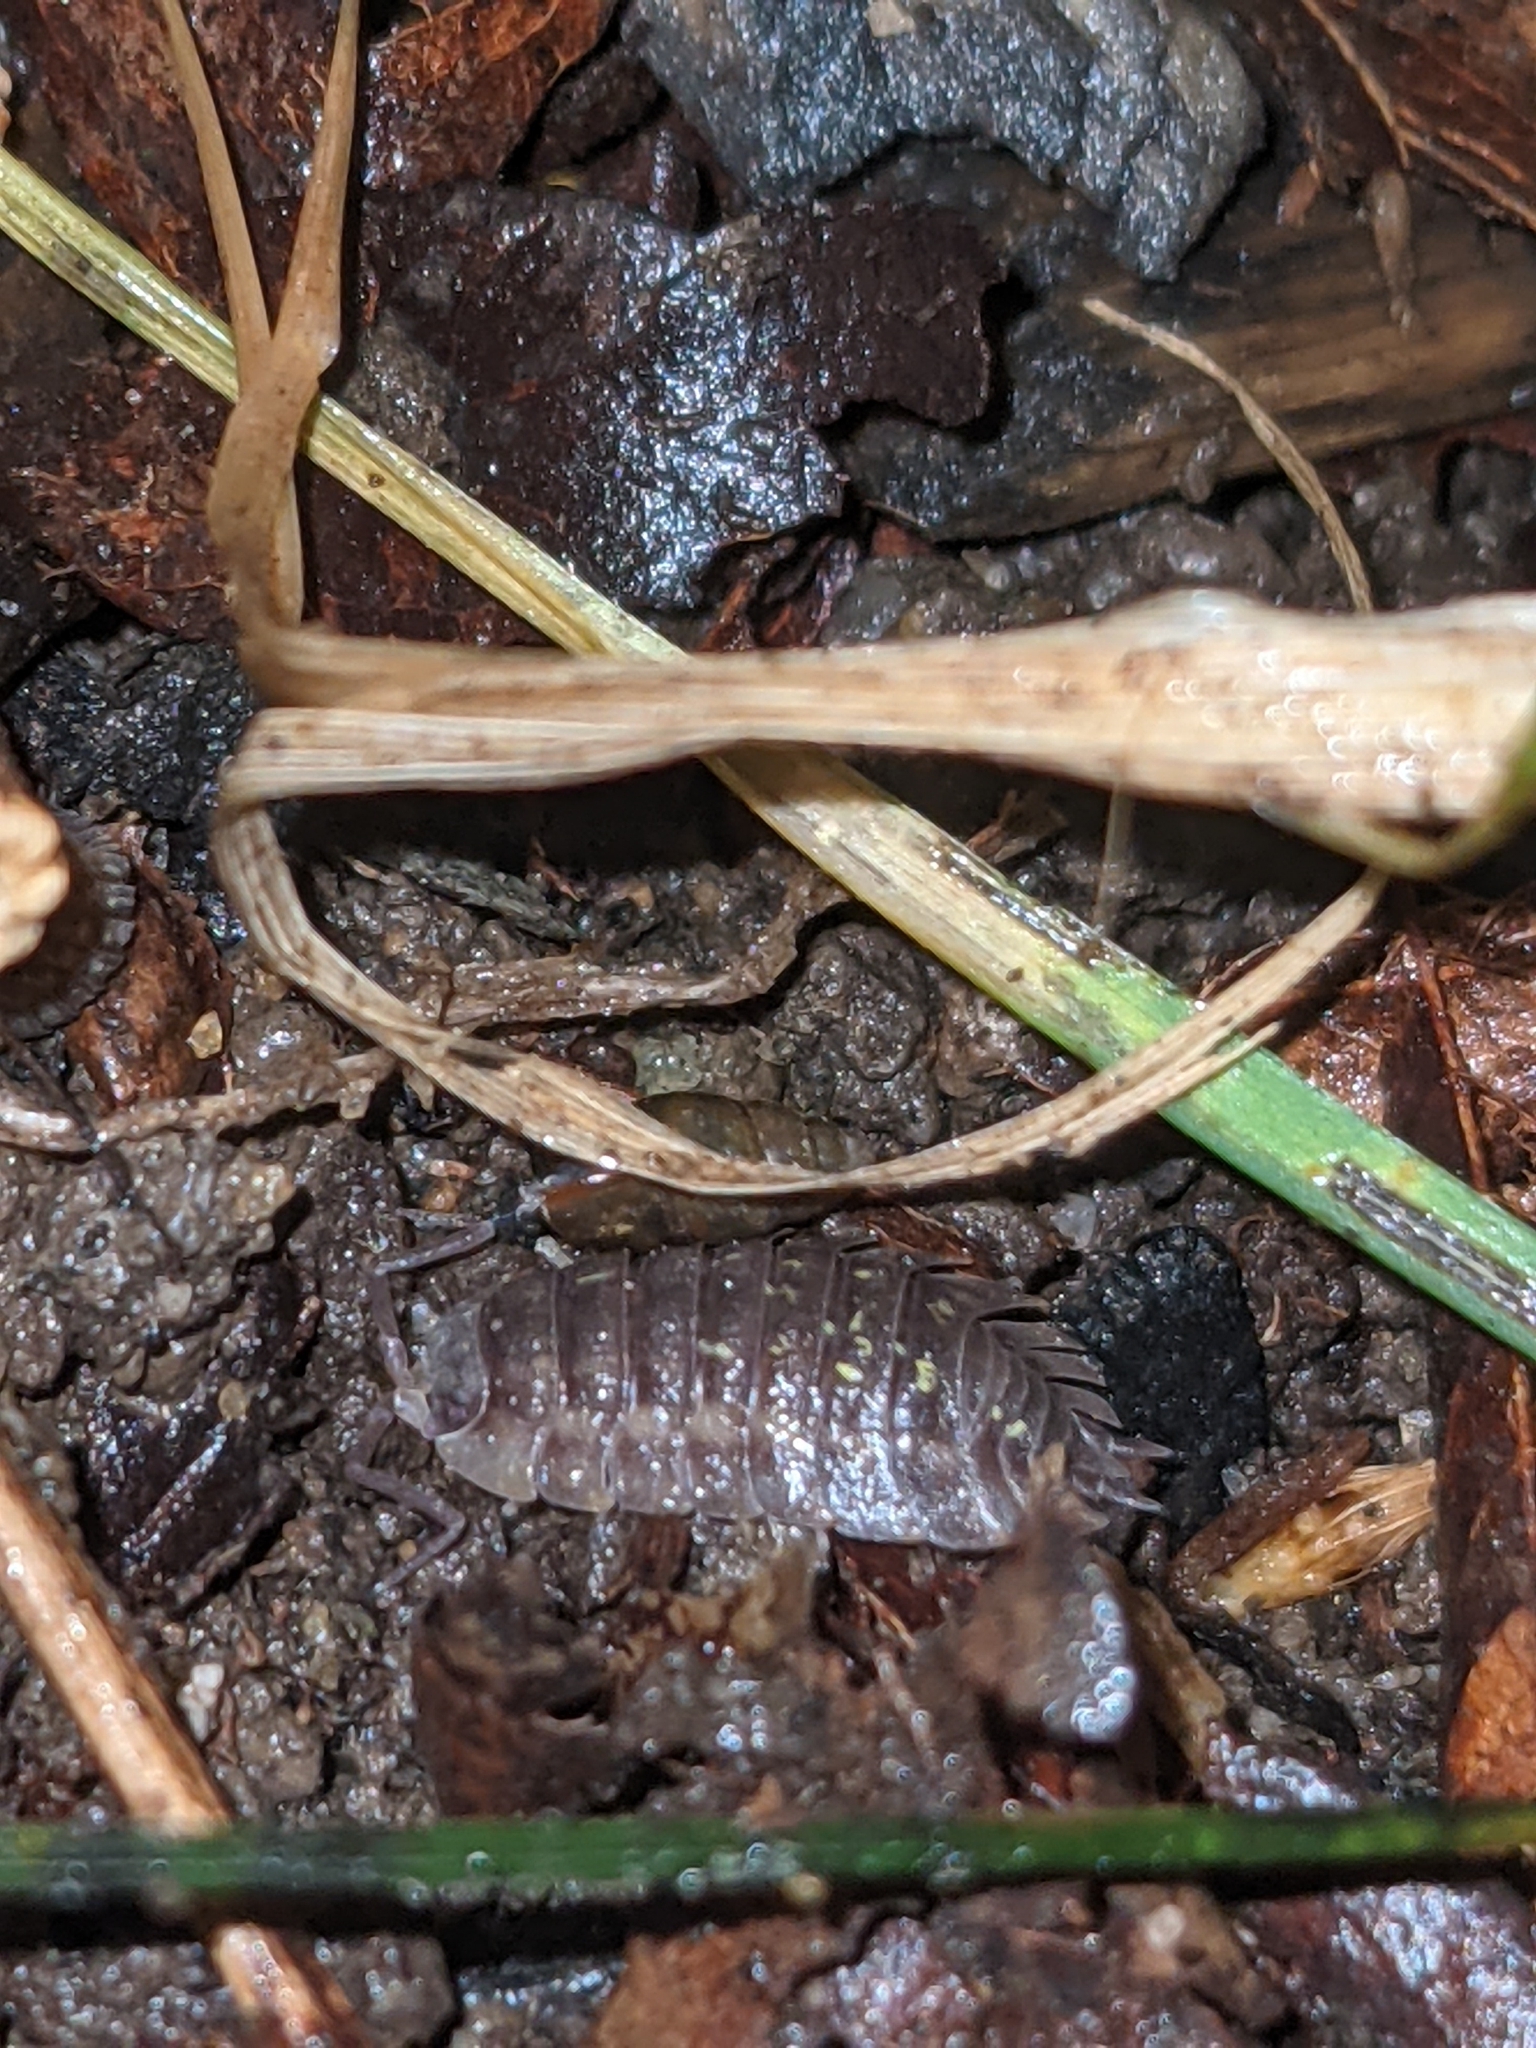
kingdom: Animalia
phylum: Arthropoda
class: Malacostraca
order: Isopoda
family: Oniscidae
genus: Oniscus
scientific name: Oniscus asellus
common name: Common shiny woodlouse
